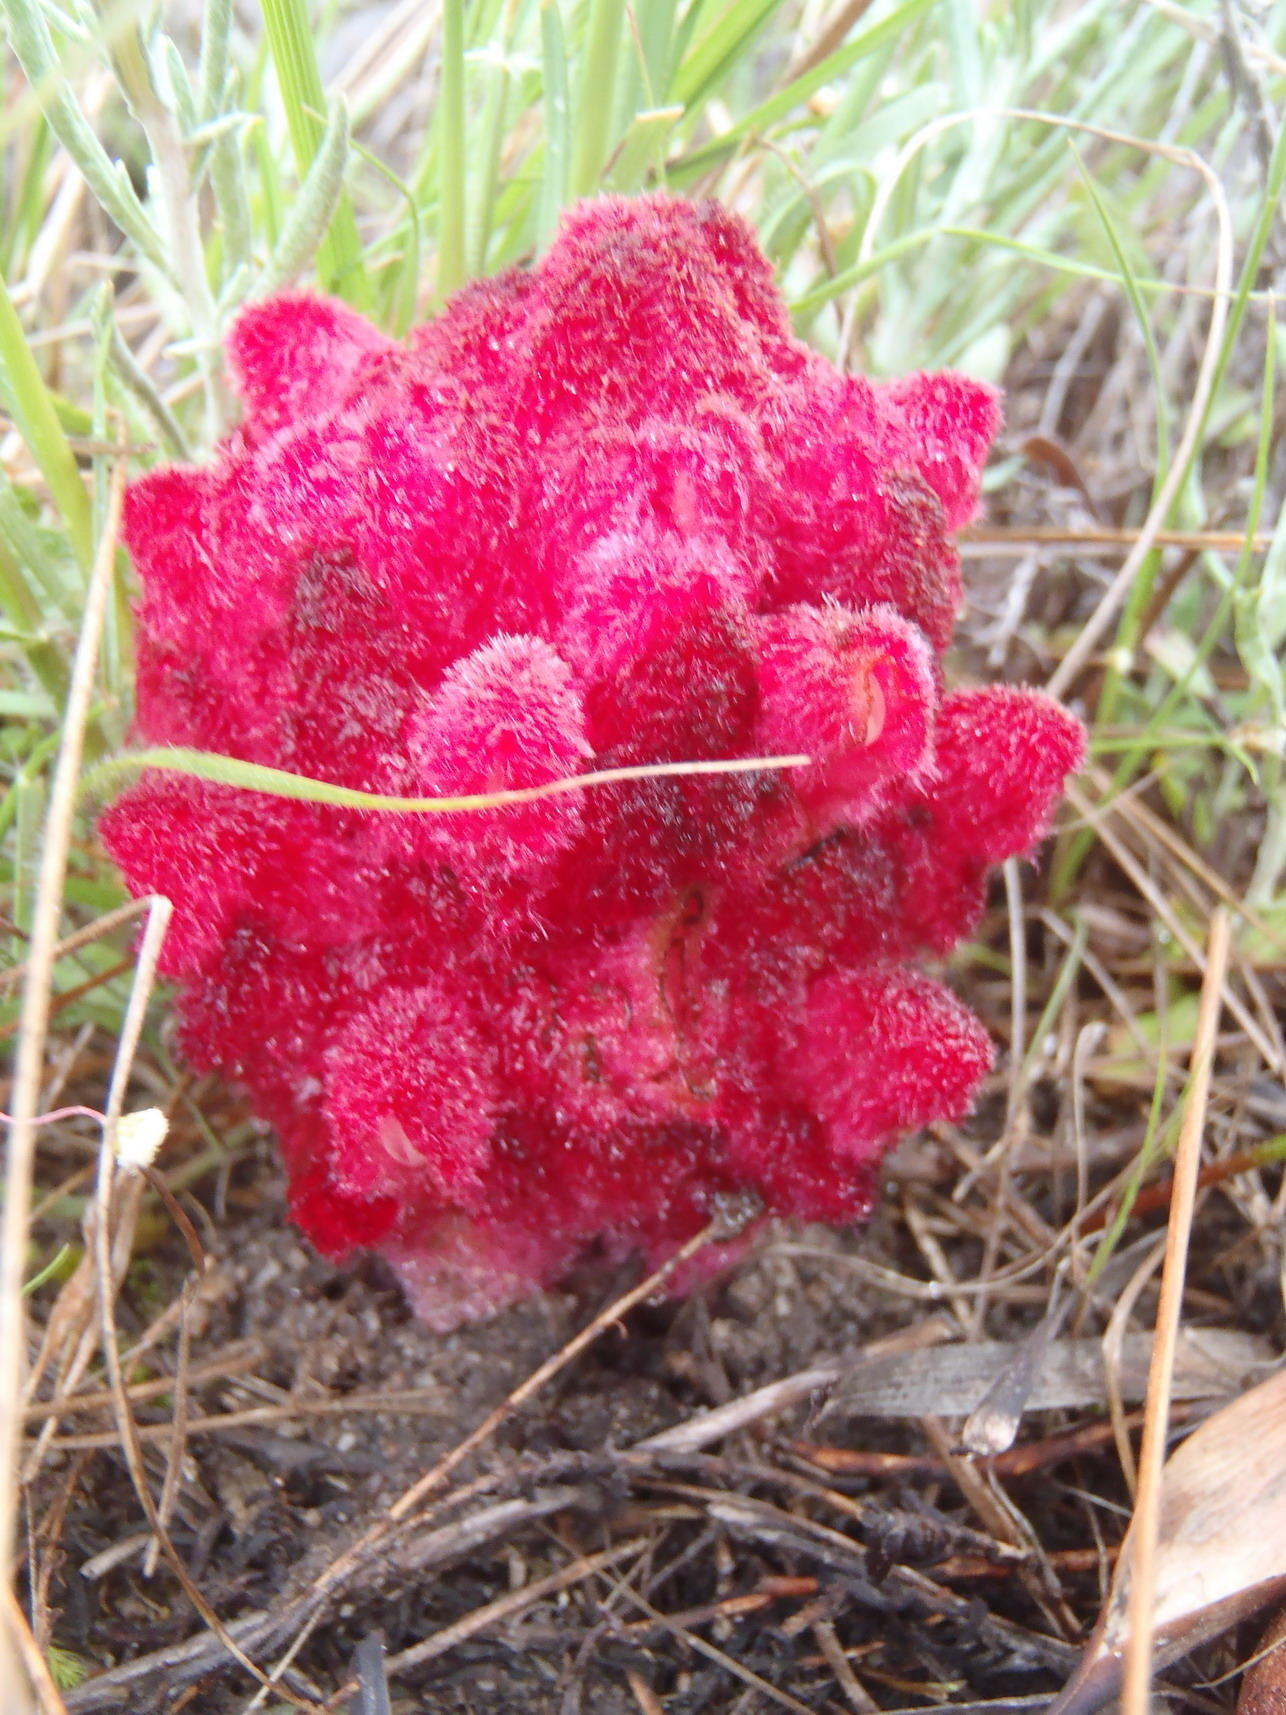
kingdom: Plantae
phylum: Tracheophyta
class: Magnoliopsida
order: Lamiales
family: Orobanchaceae
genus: Hyobanche
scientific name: Hyobanche sanguinea
